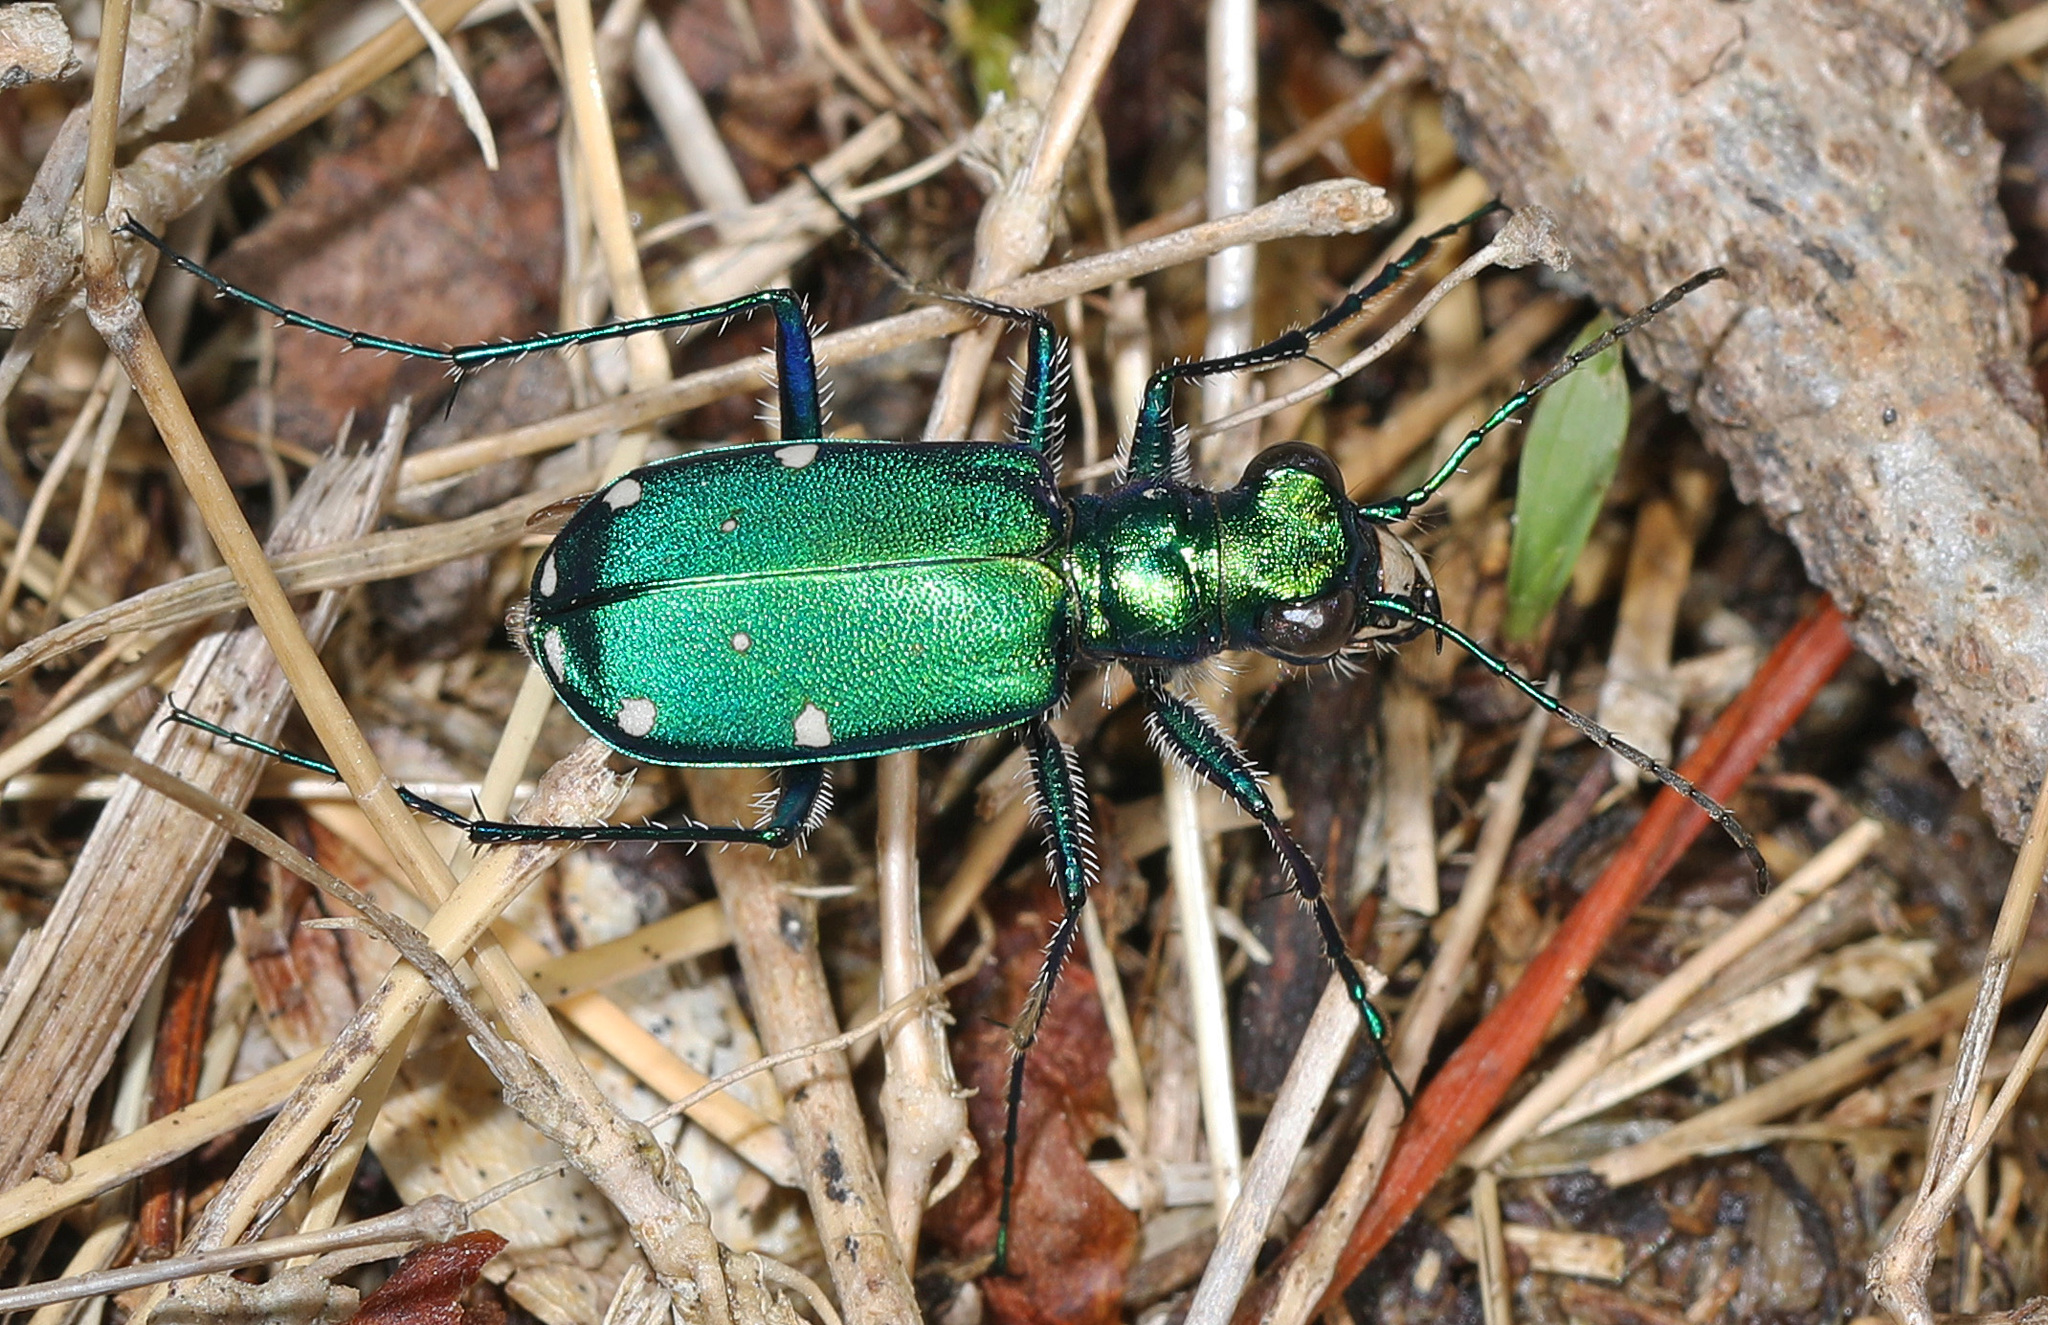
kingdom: Animalia
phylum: Arthropoda
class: Insecta
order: Coleoptera
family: Carabidae
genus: Cicindela
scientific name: Cicindela sexguttata
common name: Six-spotted tiger beetle
